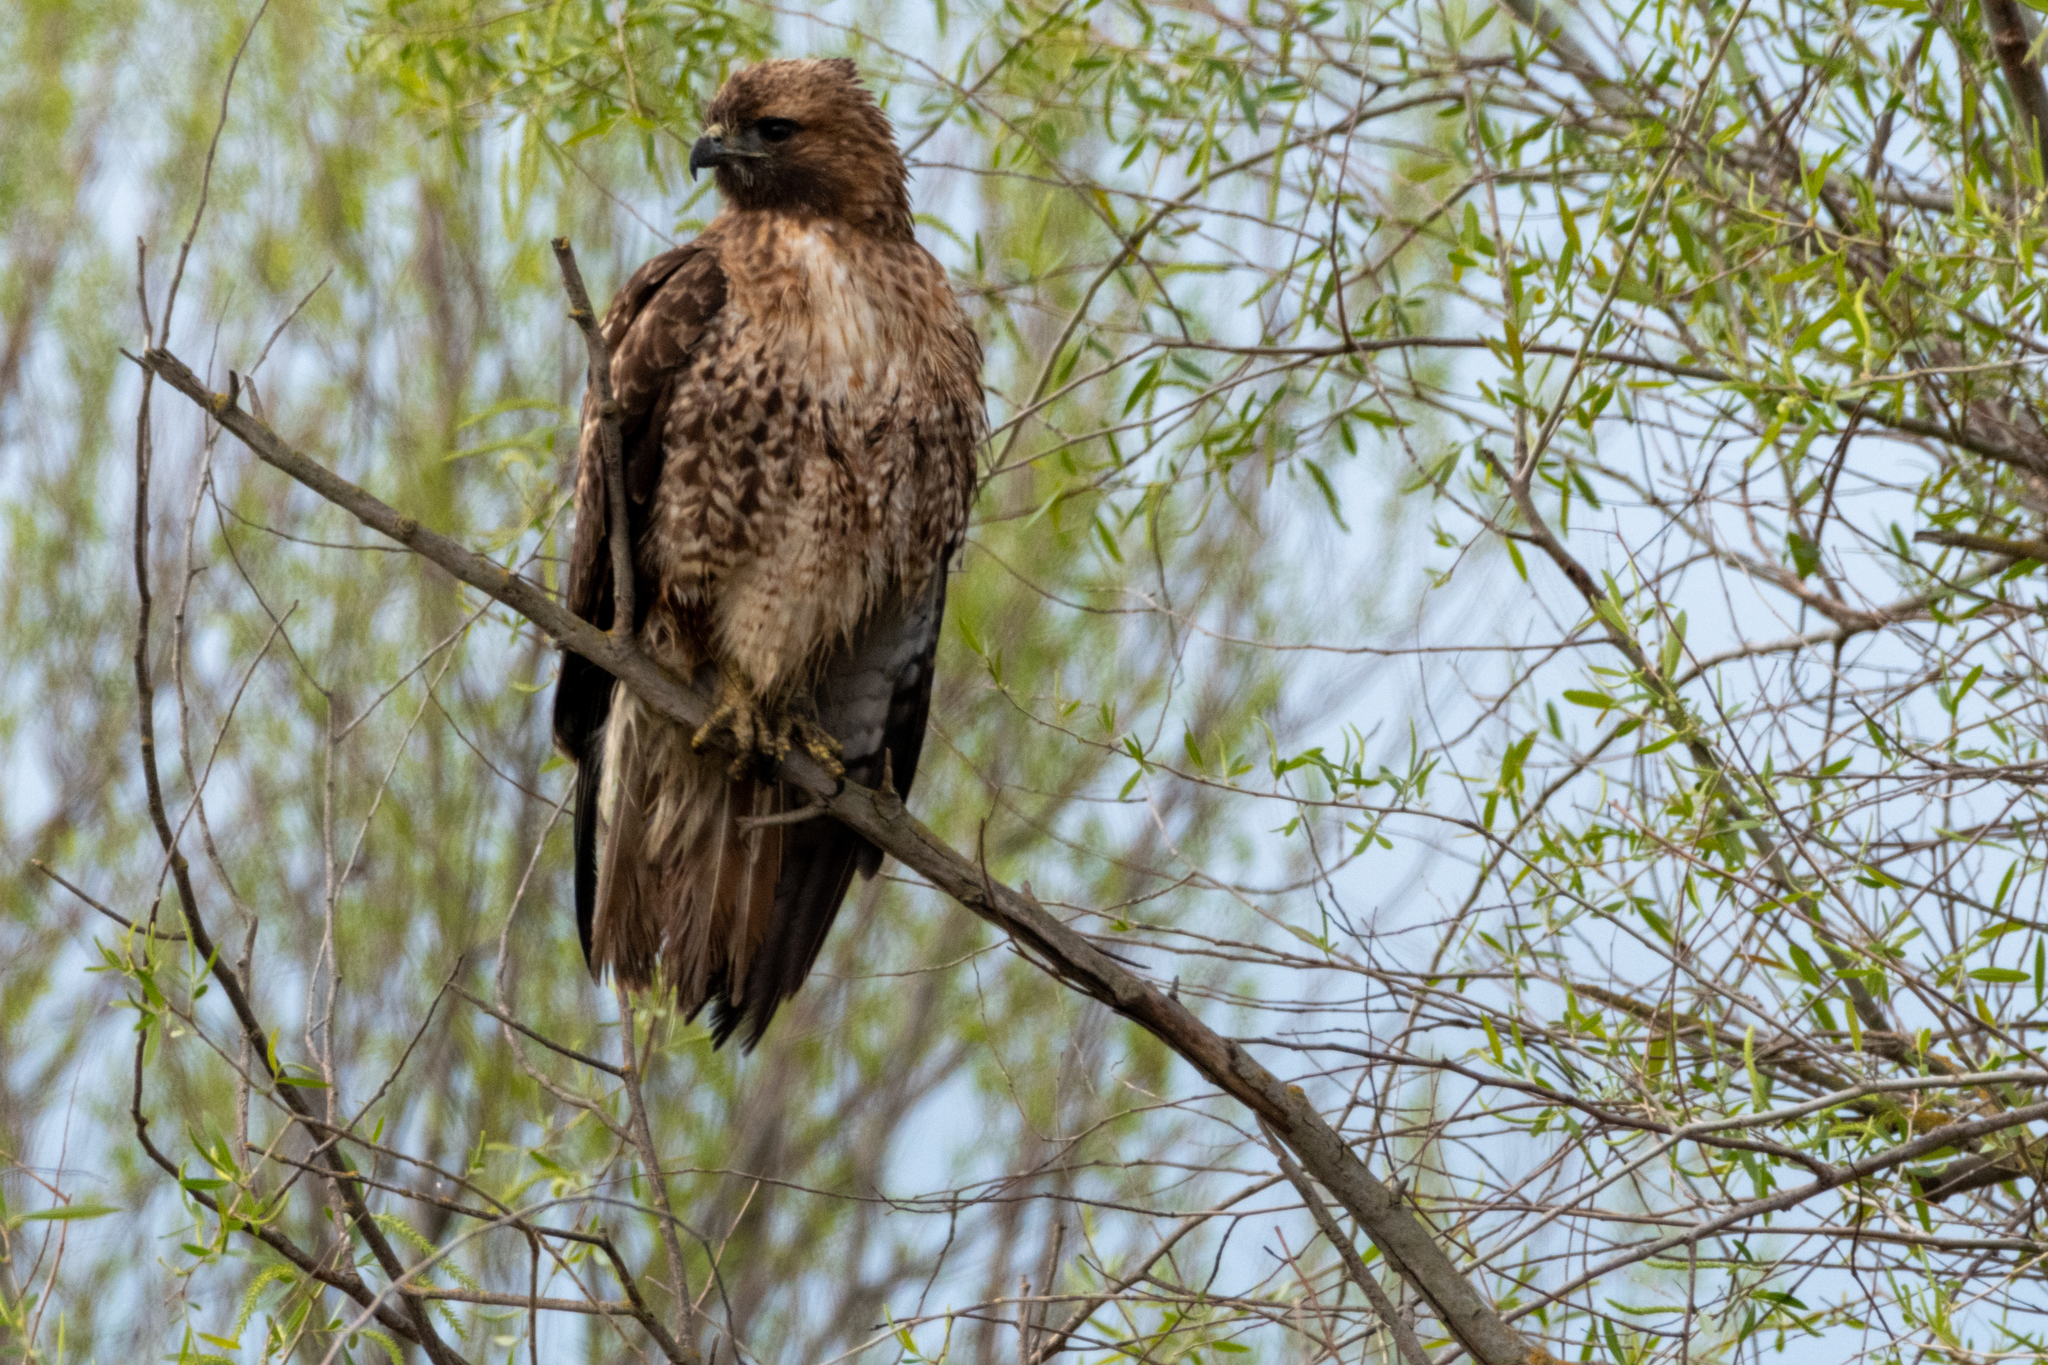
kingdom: Animalia
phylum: Chordata
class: Aves
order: Accipitriformes
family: Accipitridae
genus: Buteo
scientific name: Buteo jamaicensis
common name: Red-tailed hawk
